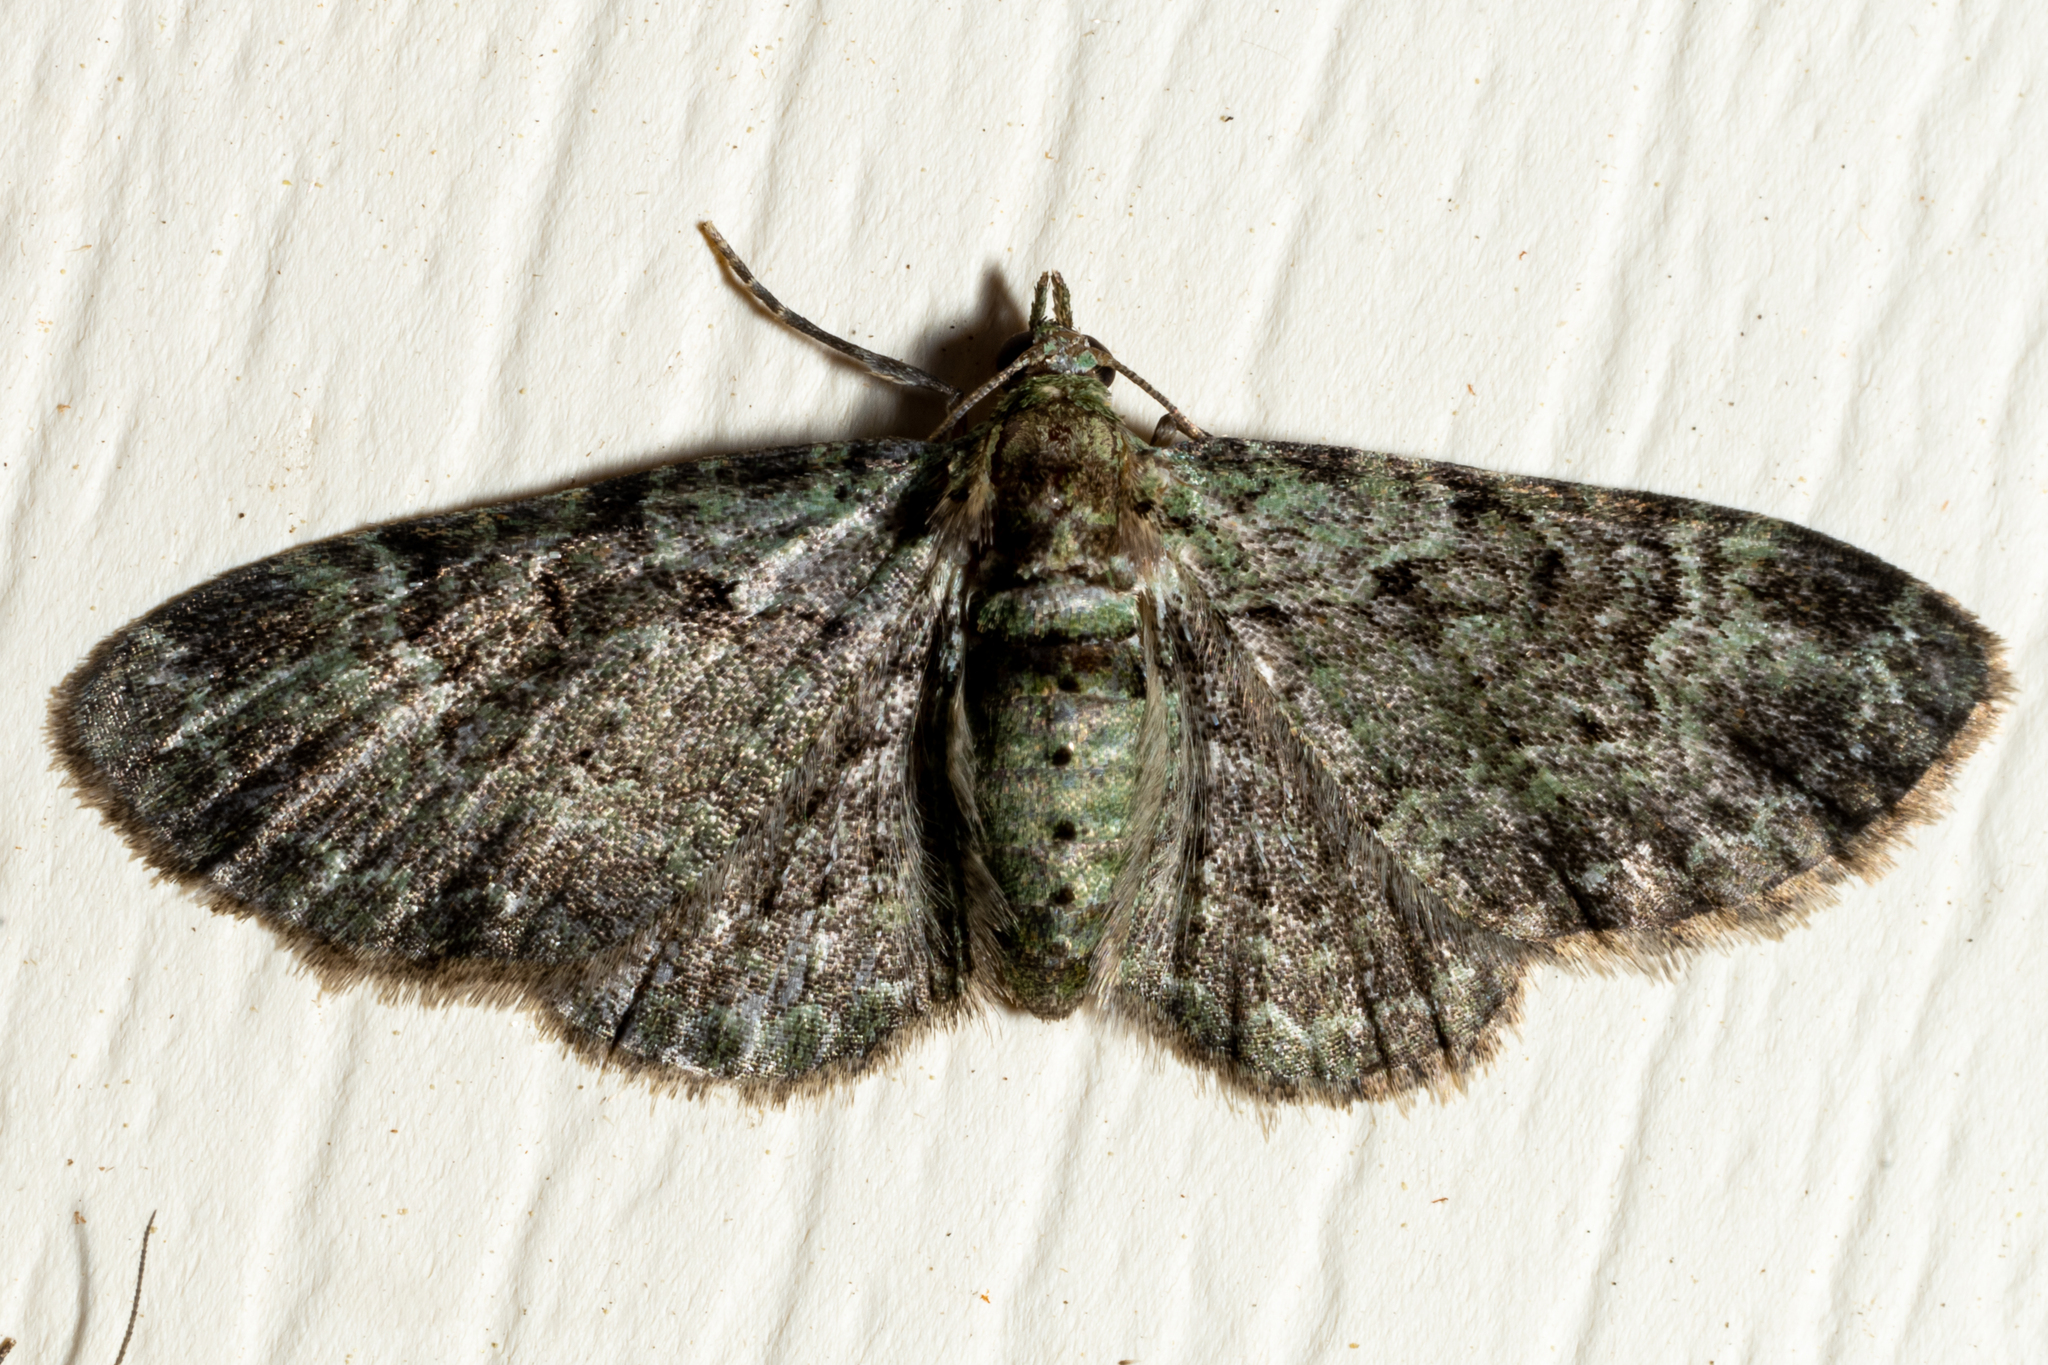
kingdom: Animalia
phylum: Arthropoda
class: Insecta
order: Lepidoptera
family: Geometridae
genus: Pasiphila
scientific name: Pasiphila rectangulata
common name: Green pug
